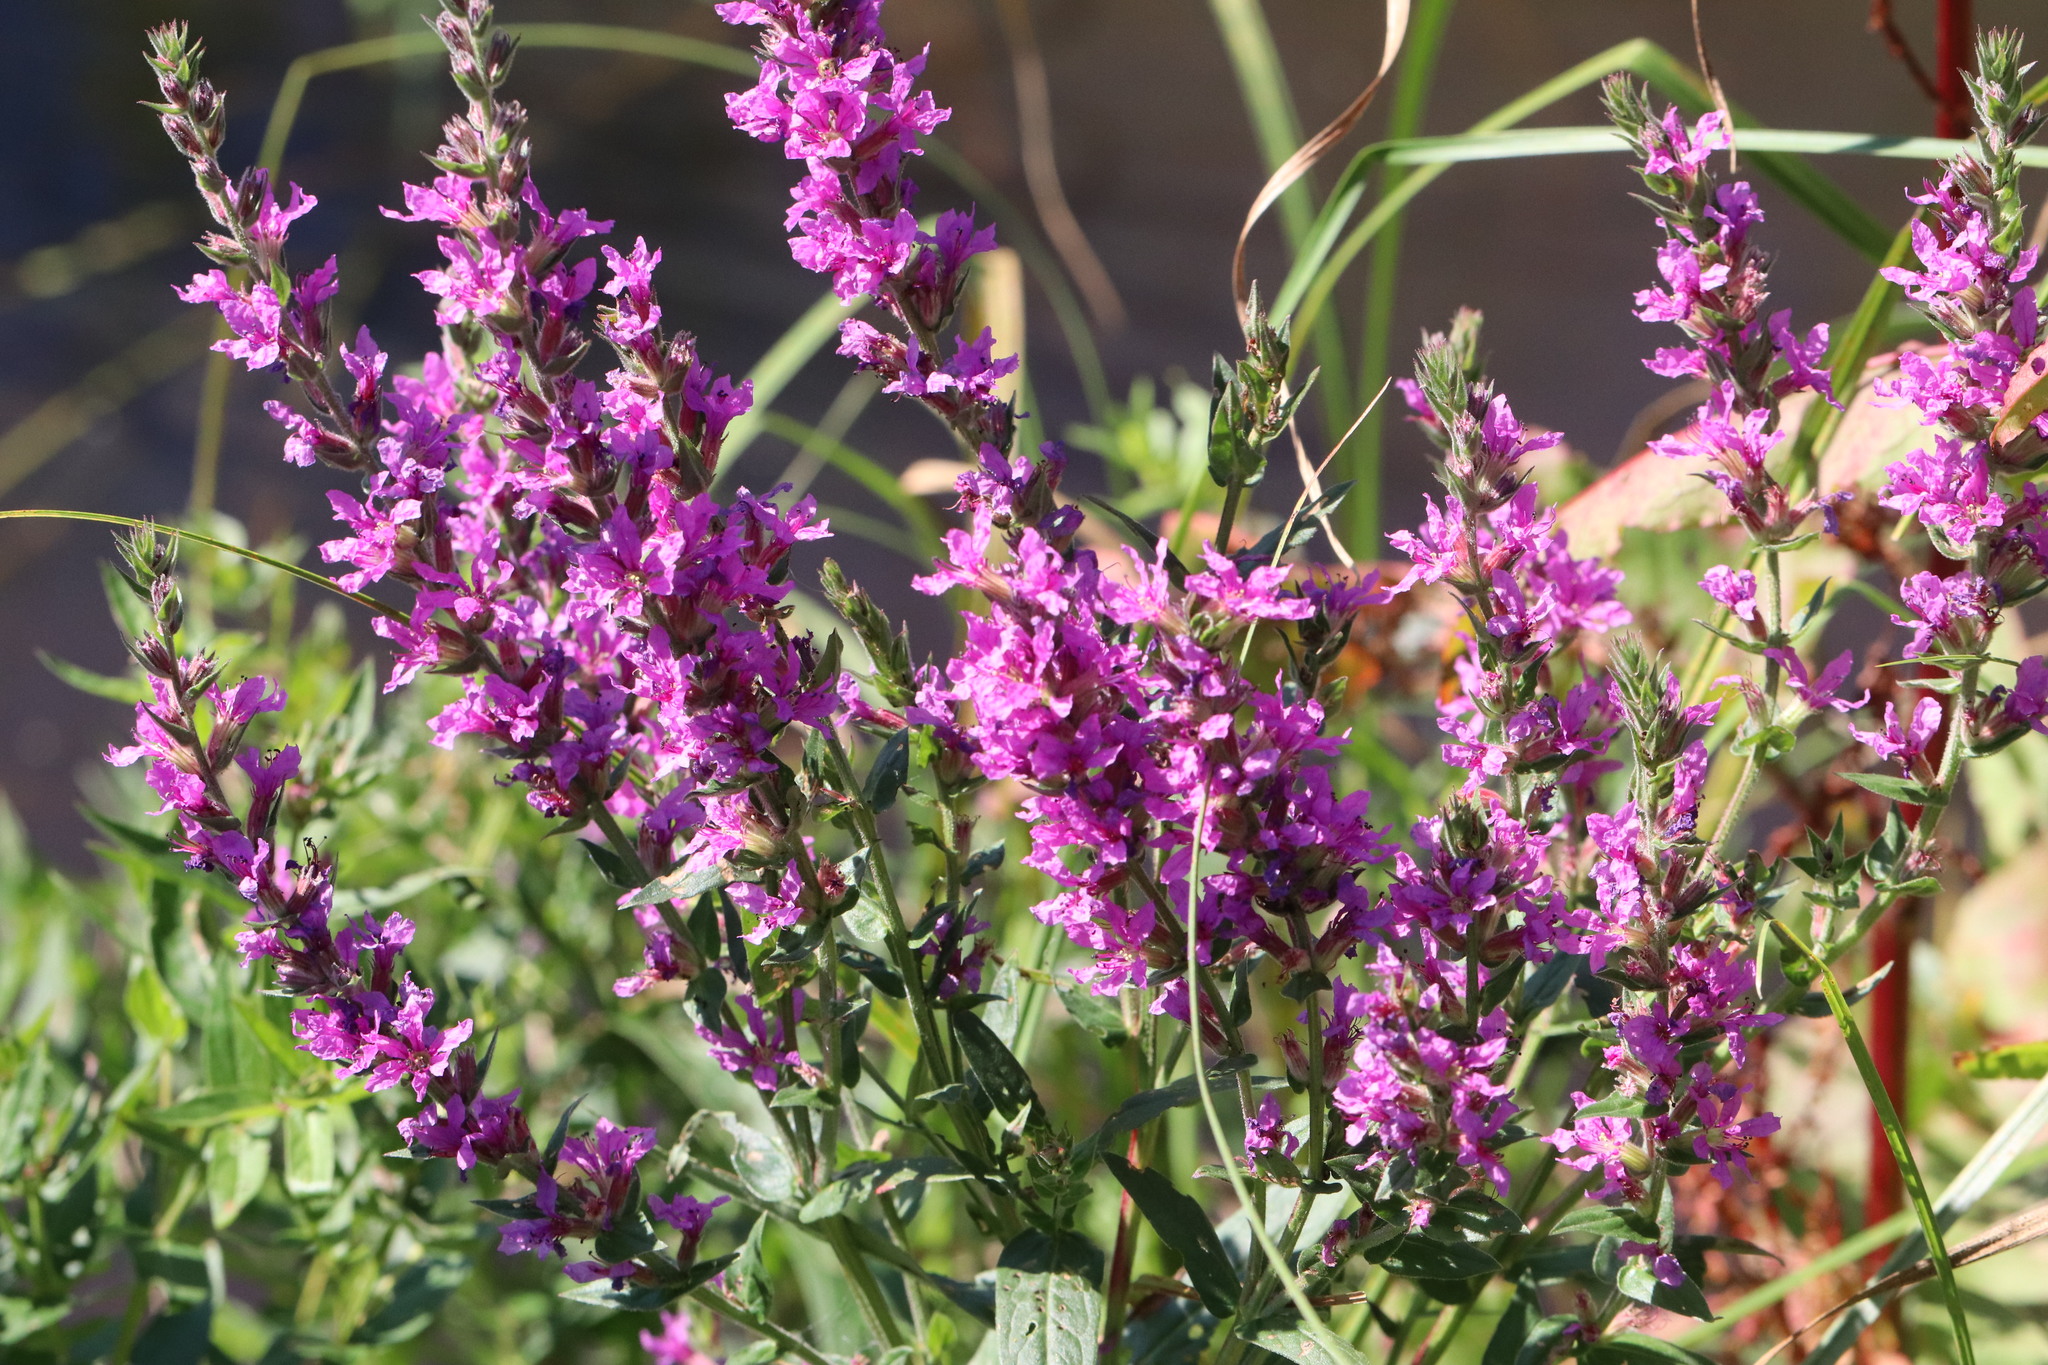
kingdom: Plantae
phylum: Tracheophyta
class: Magnoliopsida
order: Myrtales
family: Lythraceae
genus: Lythrum
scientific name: Lythrum salicaria
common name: Purple loosestrife
